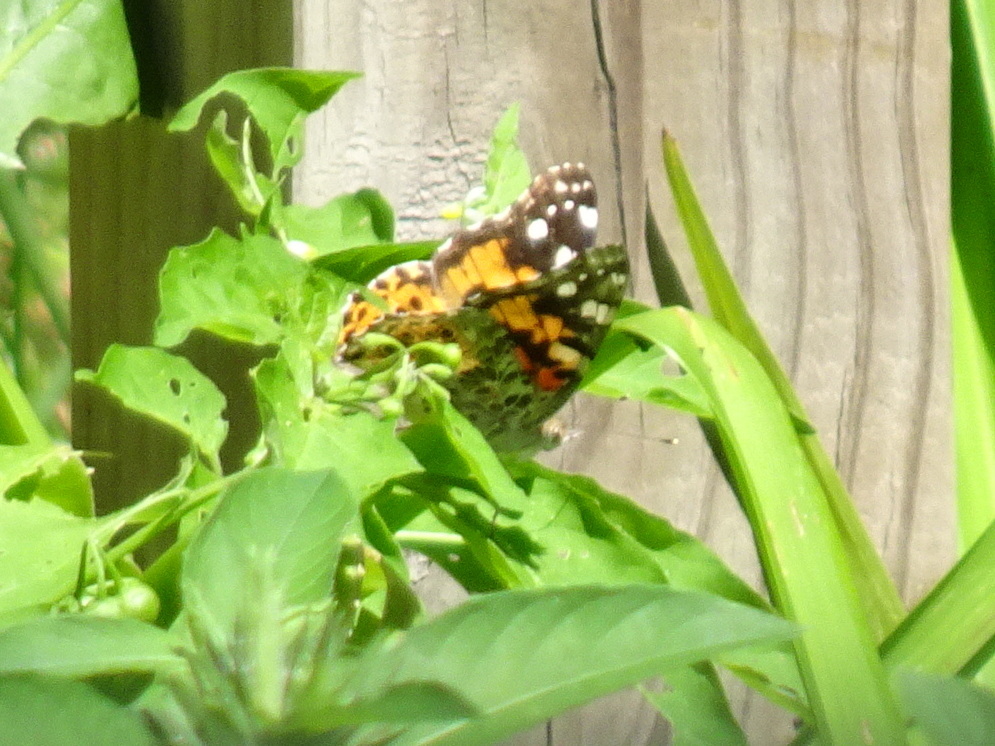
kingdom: Animalia
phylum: Arthropoda
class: Insecta
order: Lepidoptera
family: Nymphalidae
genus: Vanessa
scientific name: Vanessa cardui
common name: Painted lady
